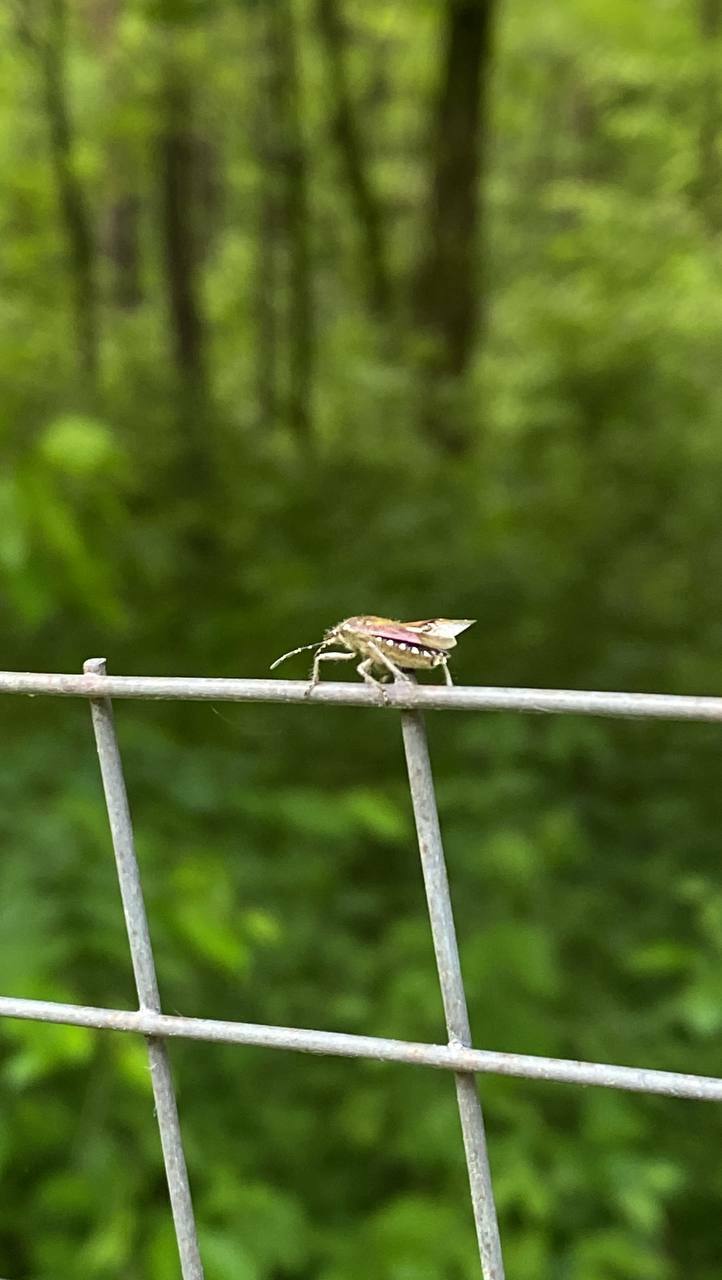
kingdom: Animalia
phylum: Arthropoda
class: Insecta
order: Hemiptera
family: Pentatomidae
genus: Dolycoris
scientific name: Dolycoris baccarum
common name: Sloe bug
